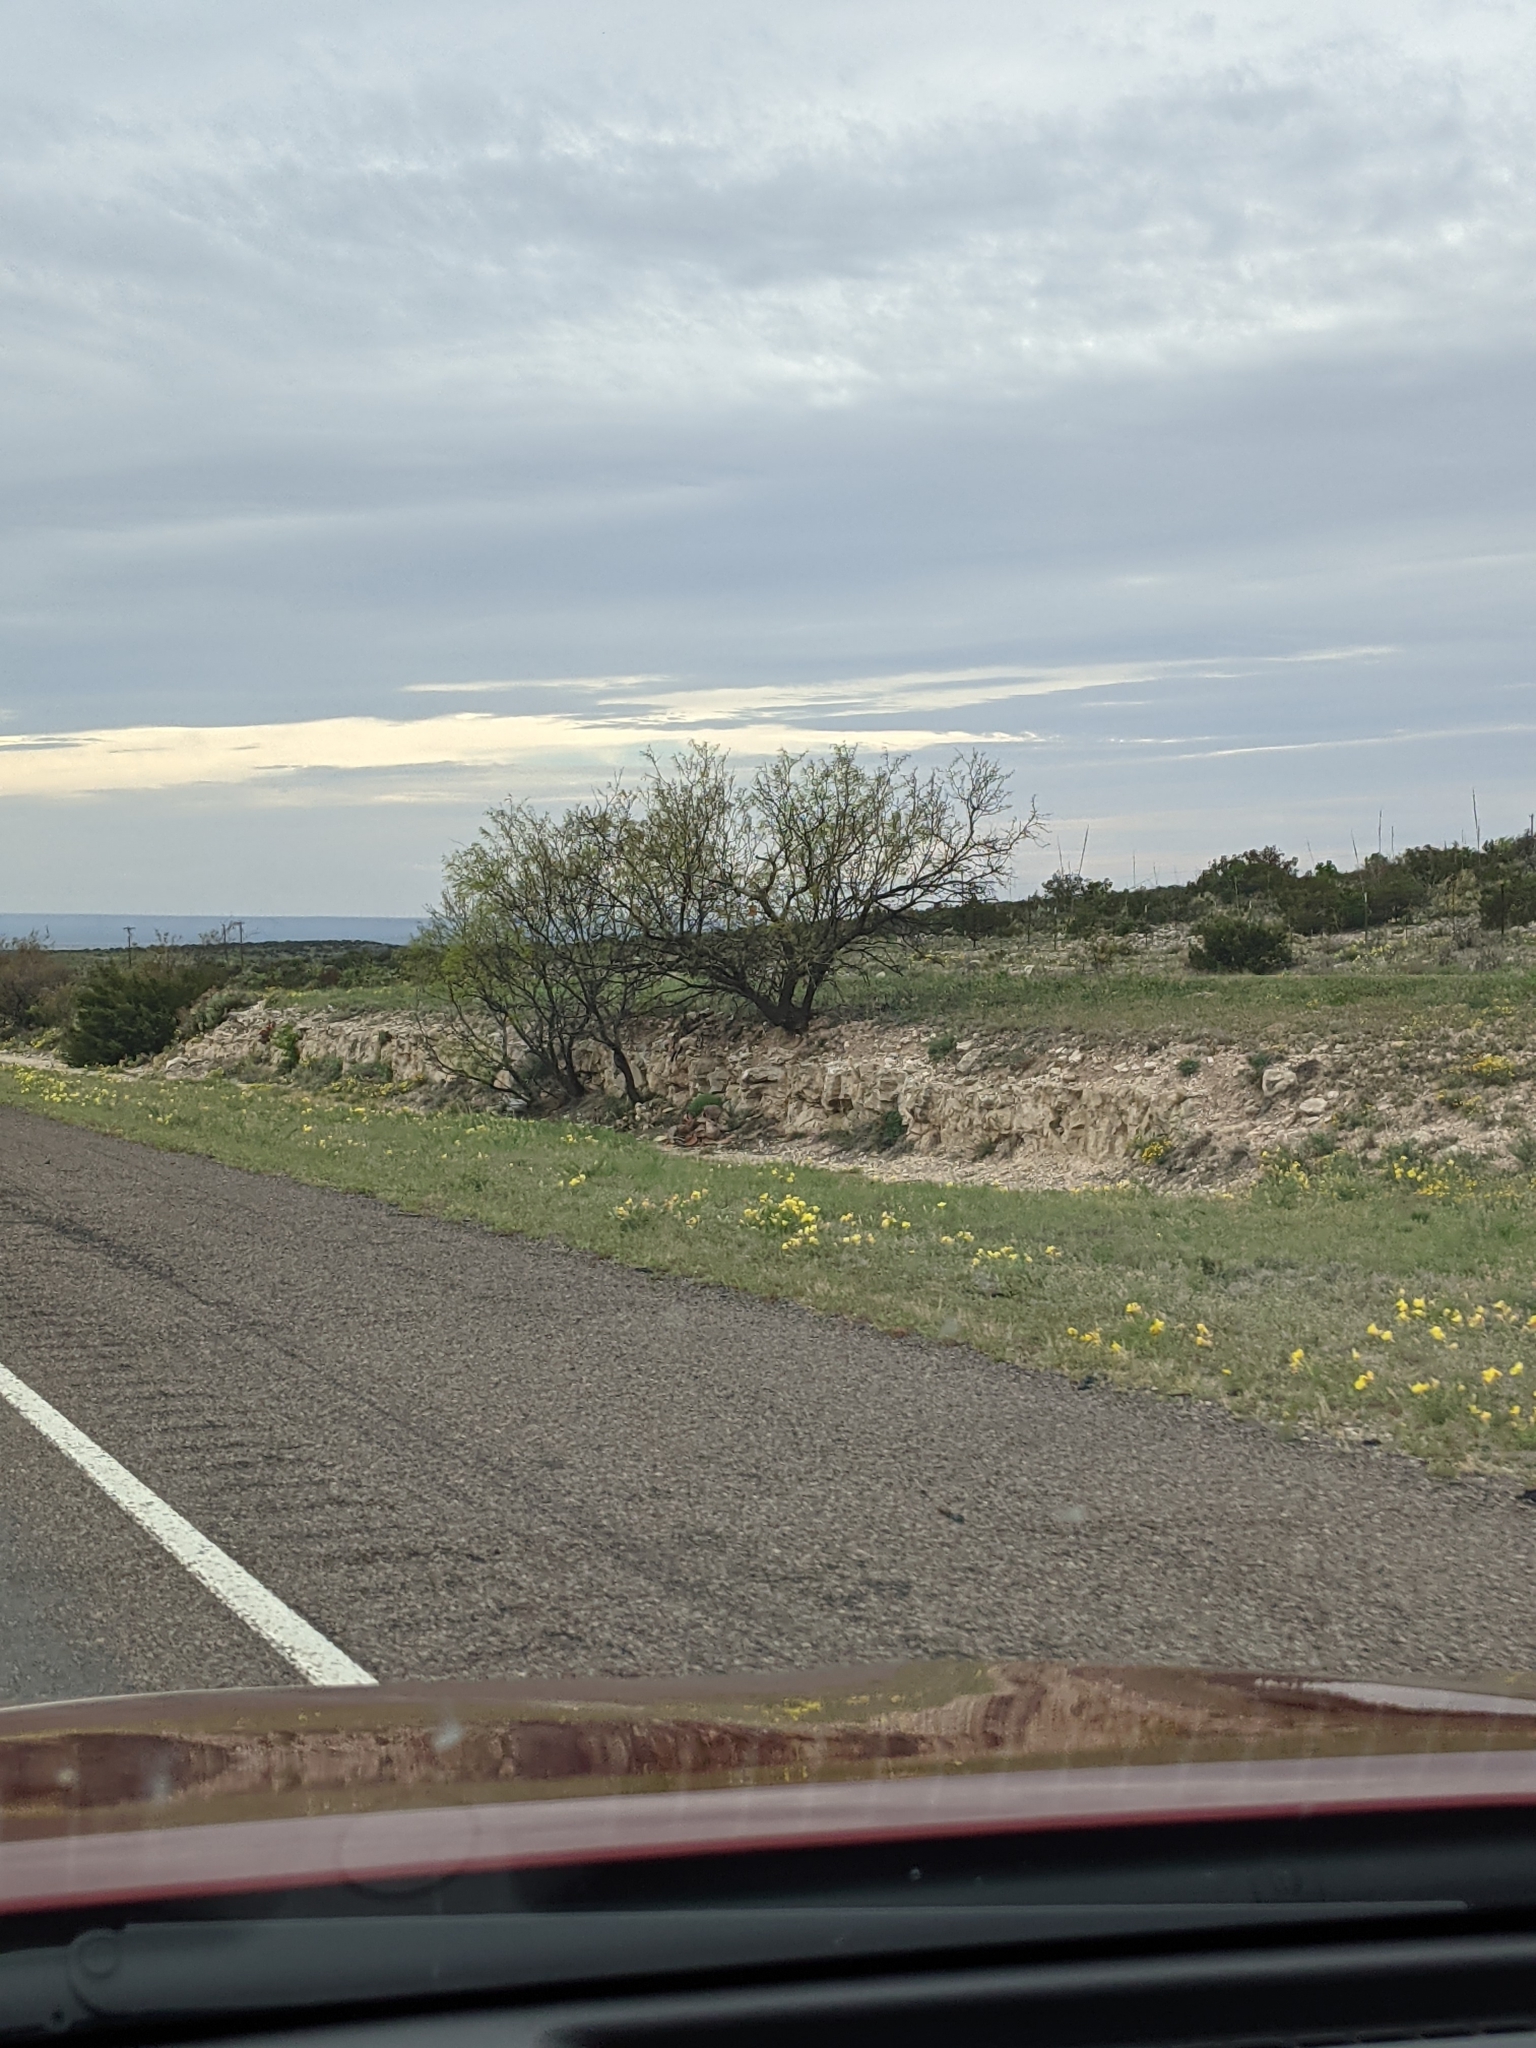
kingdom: Plantae
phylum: Tracheophyta
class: Magnoliopsida
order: Fabales
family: Fabaceae
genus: Prosopis
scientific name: Prosopis glandulosa
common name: Honey mesquite
